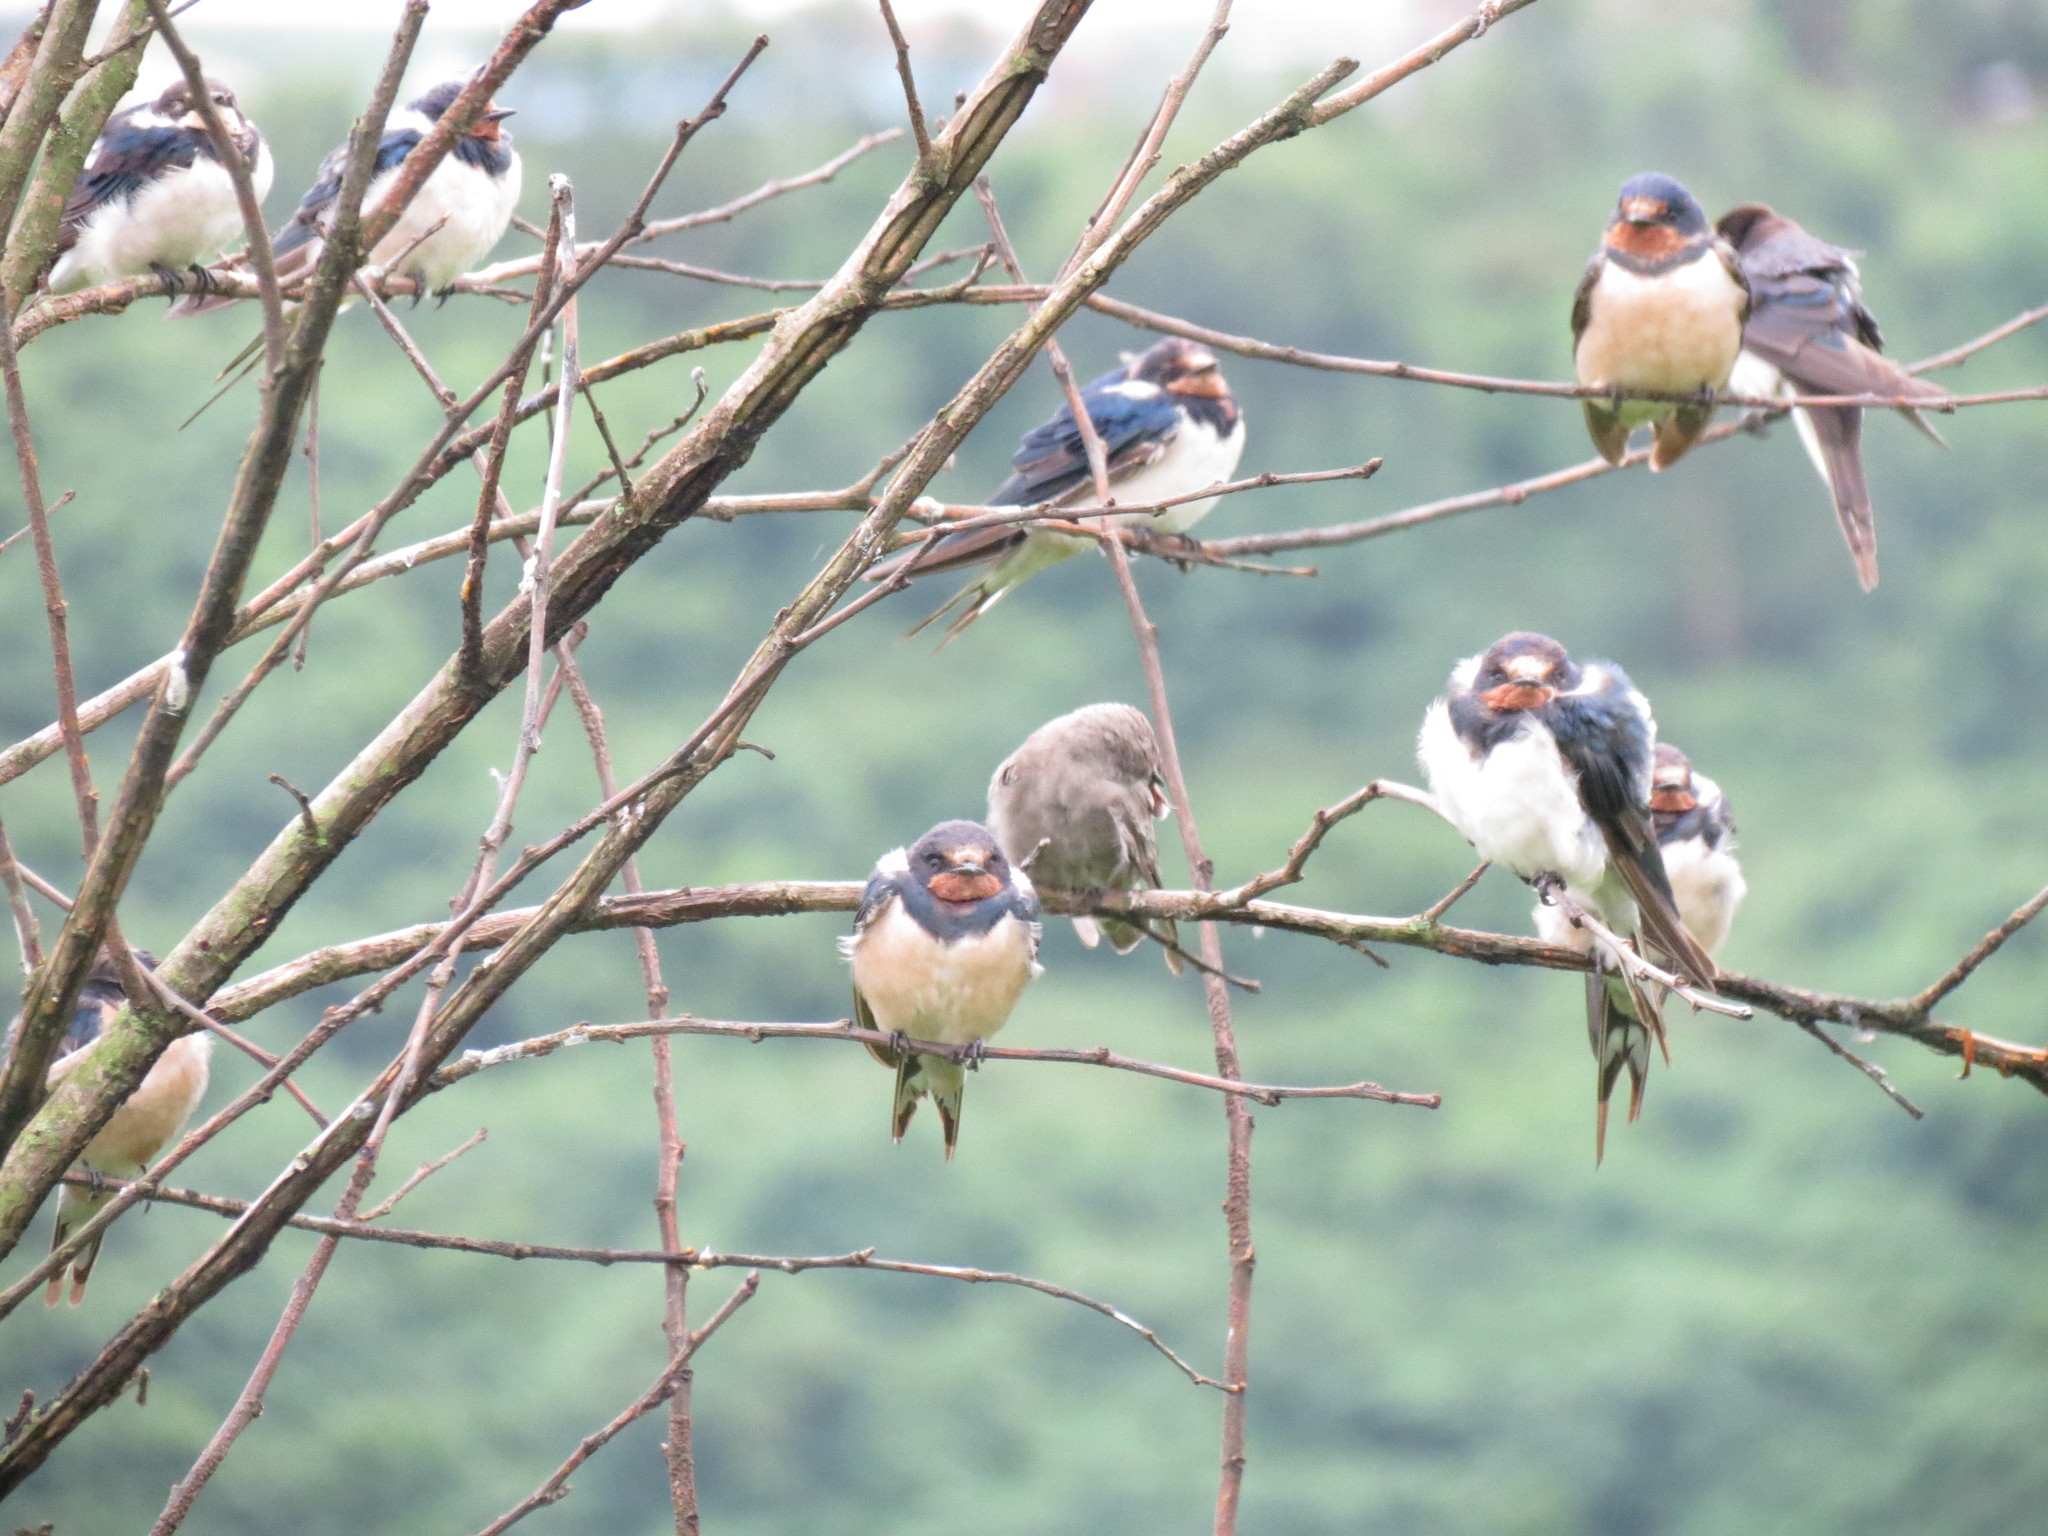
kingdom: Animalia
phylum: Chordata
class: Aves
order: Passeriformes
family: Hirundinidae
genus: Hirundo
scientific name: Hirundo rustica
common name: Barn swallow
